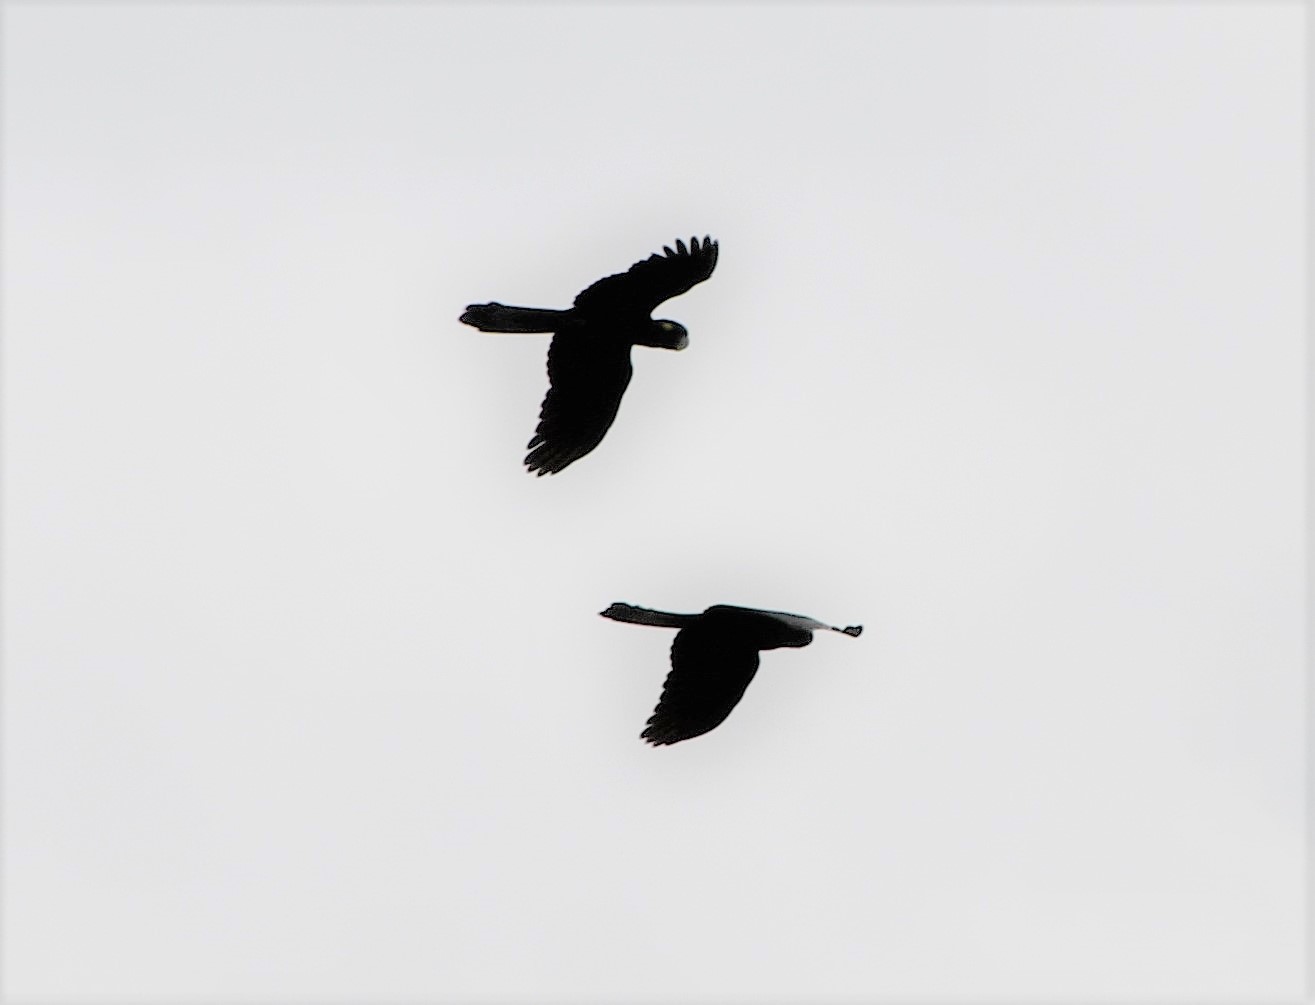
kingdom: Animalia
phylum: Chordata
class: Aves
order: Psittaciformes
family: Cacatuidae
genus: Zanda
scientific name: Zanda funerea
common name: Yellow-tailed black-cockatoo
